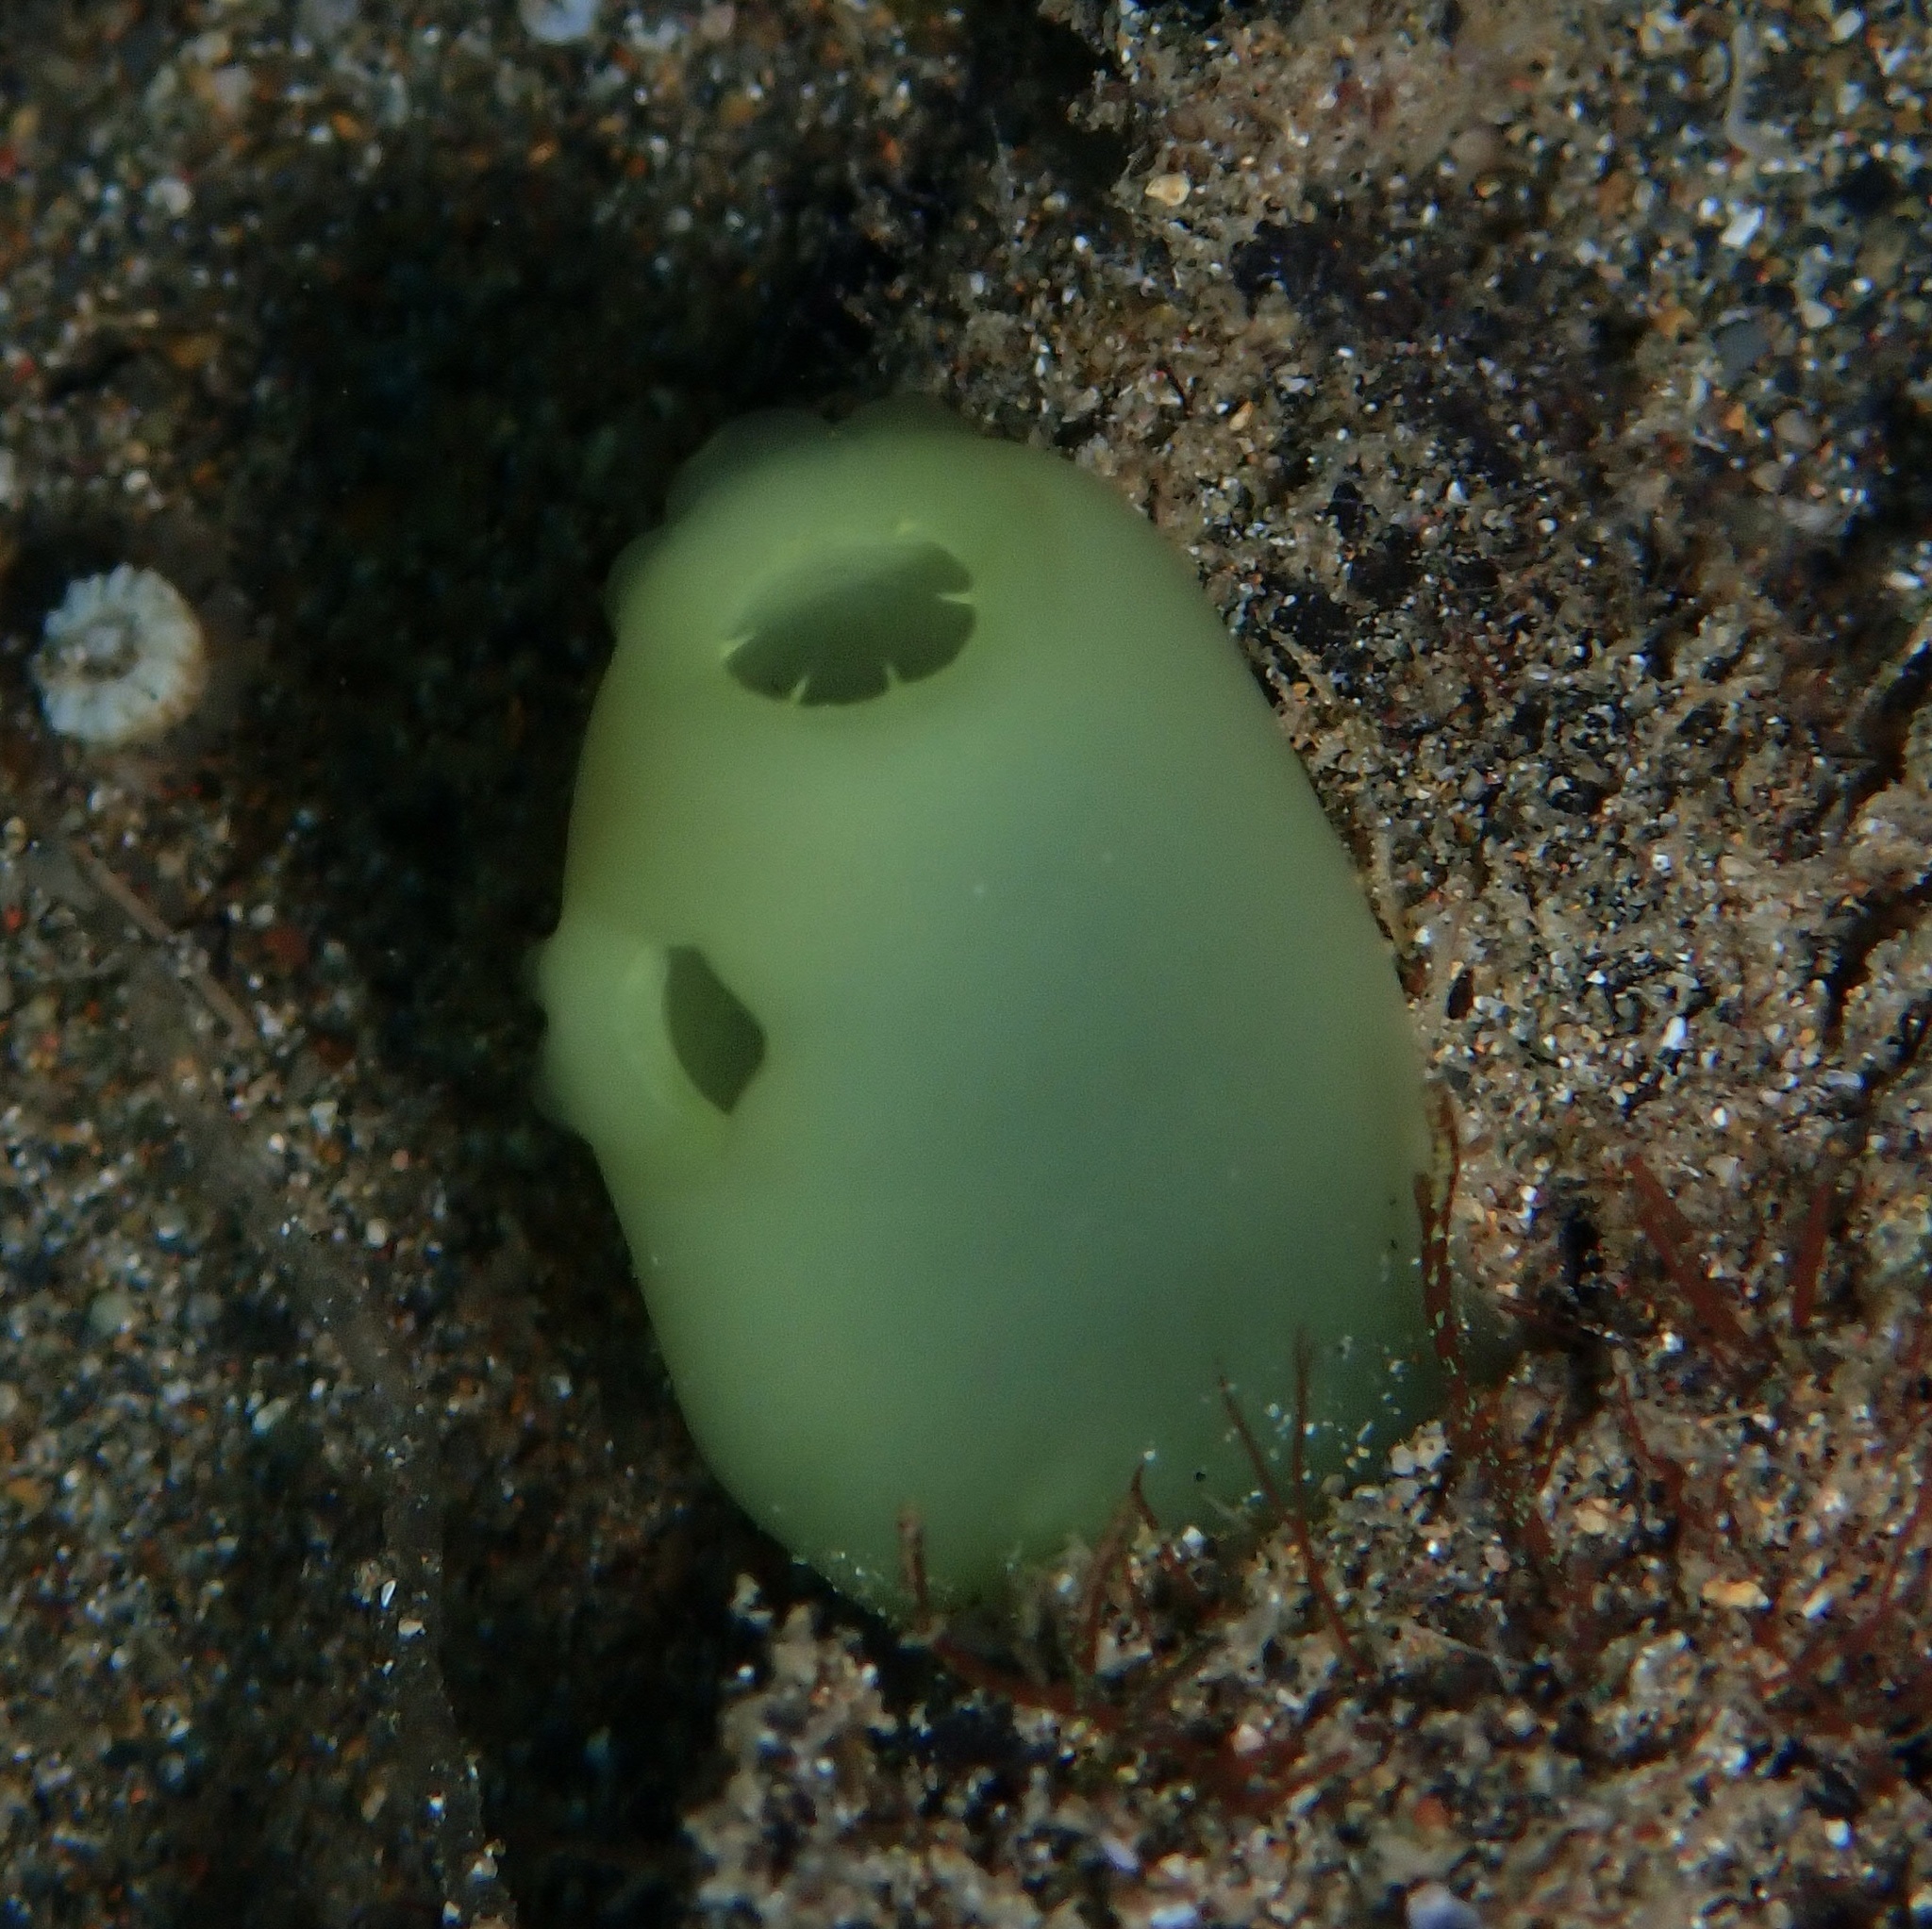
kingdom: Animalia
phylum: Chordata
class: Ascidiacea
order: Aplousobranchia
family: Diazonidae
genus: Rhopalaea
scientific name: Rhopalaea crassa
